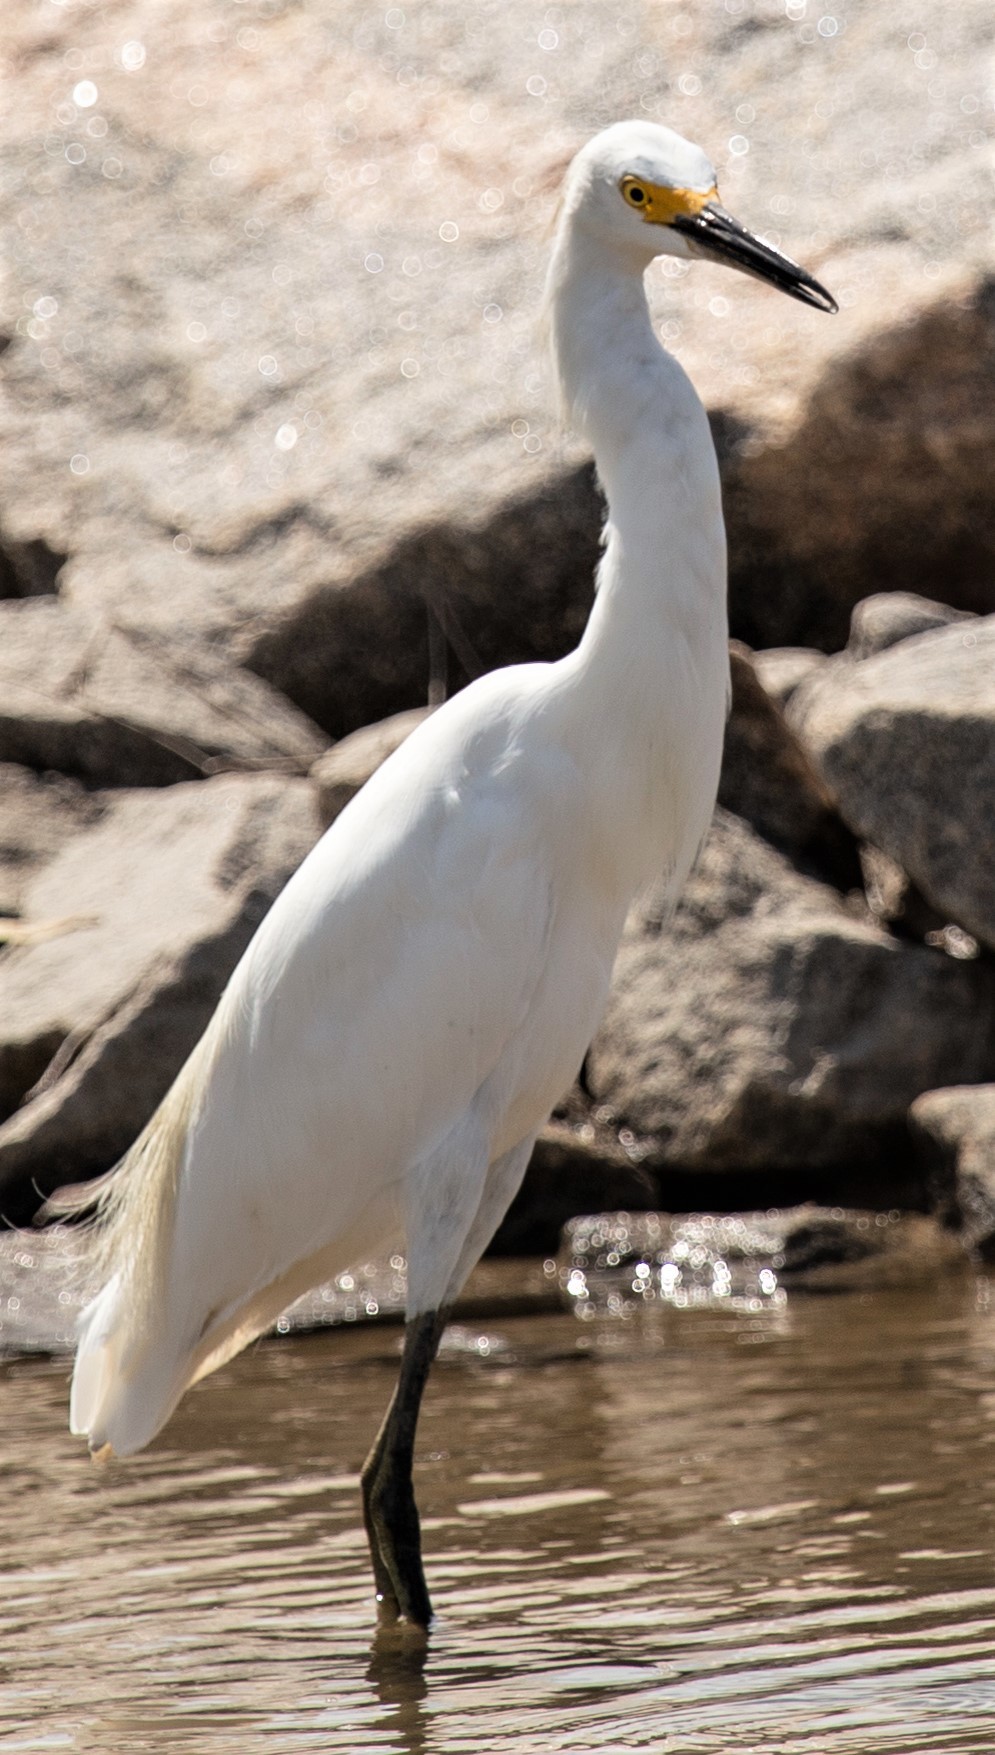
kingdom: Animalia
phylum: Chordata
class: Aves
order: Pelecaniformes
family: Ardeidae
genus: Egretta
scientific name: Egretta thula
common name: Snowy egret
